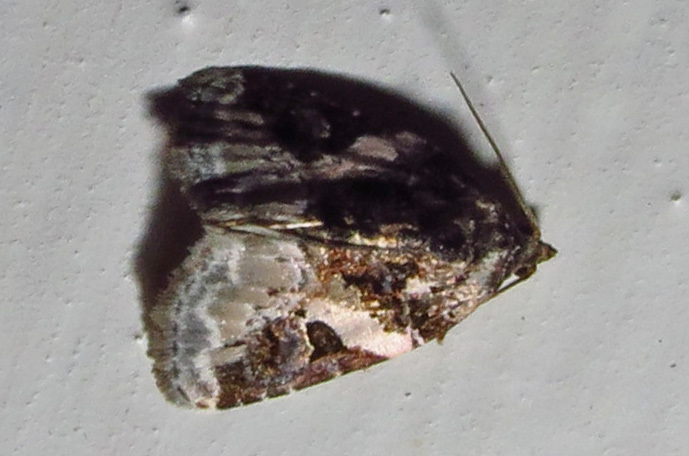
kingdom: Animalia
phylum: Arthropoda
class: Insecta
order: Lepidoptera
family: Noctuidae
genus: Pseudeustrotia
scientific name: Pseudeustrotia carneola
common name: Pink-barred lithacodia moth
